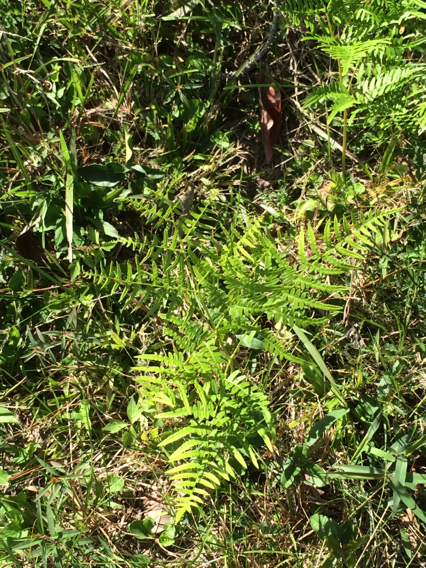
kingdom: Plantae
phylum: Tracheophyta
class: Polypodiopsida
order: Polypodiales
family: Dennstaedtiaceae
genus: Pteridium
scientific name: Pteridium
